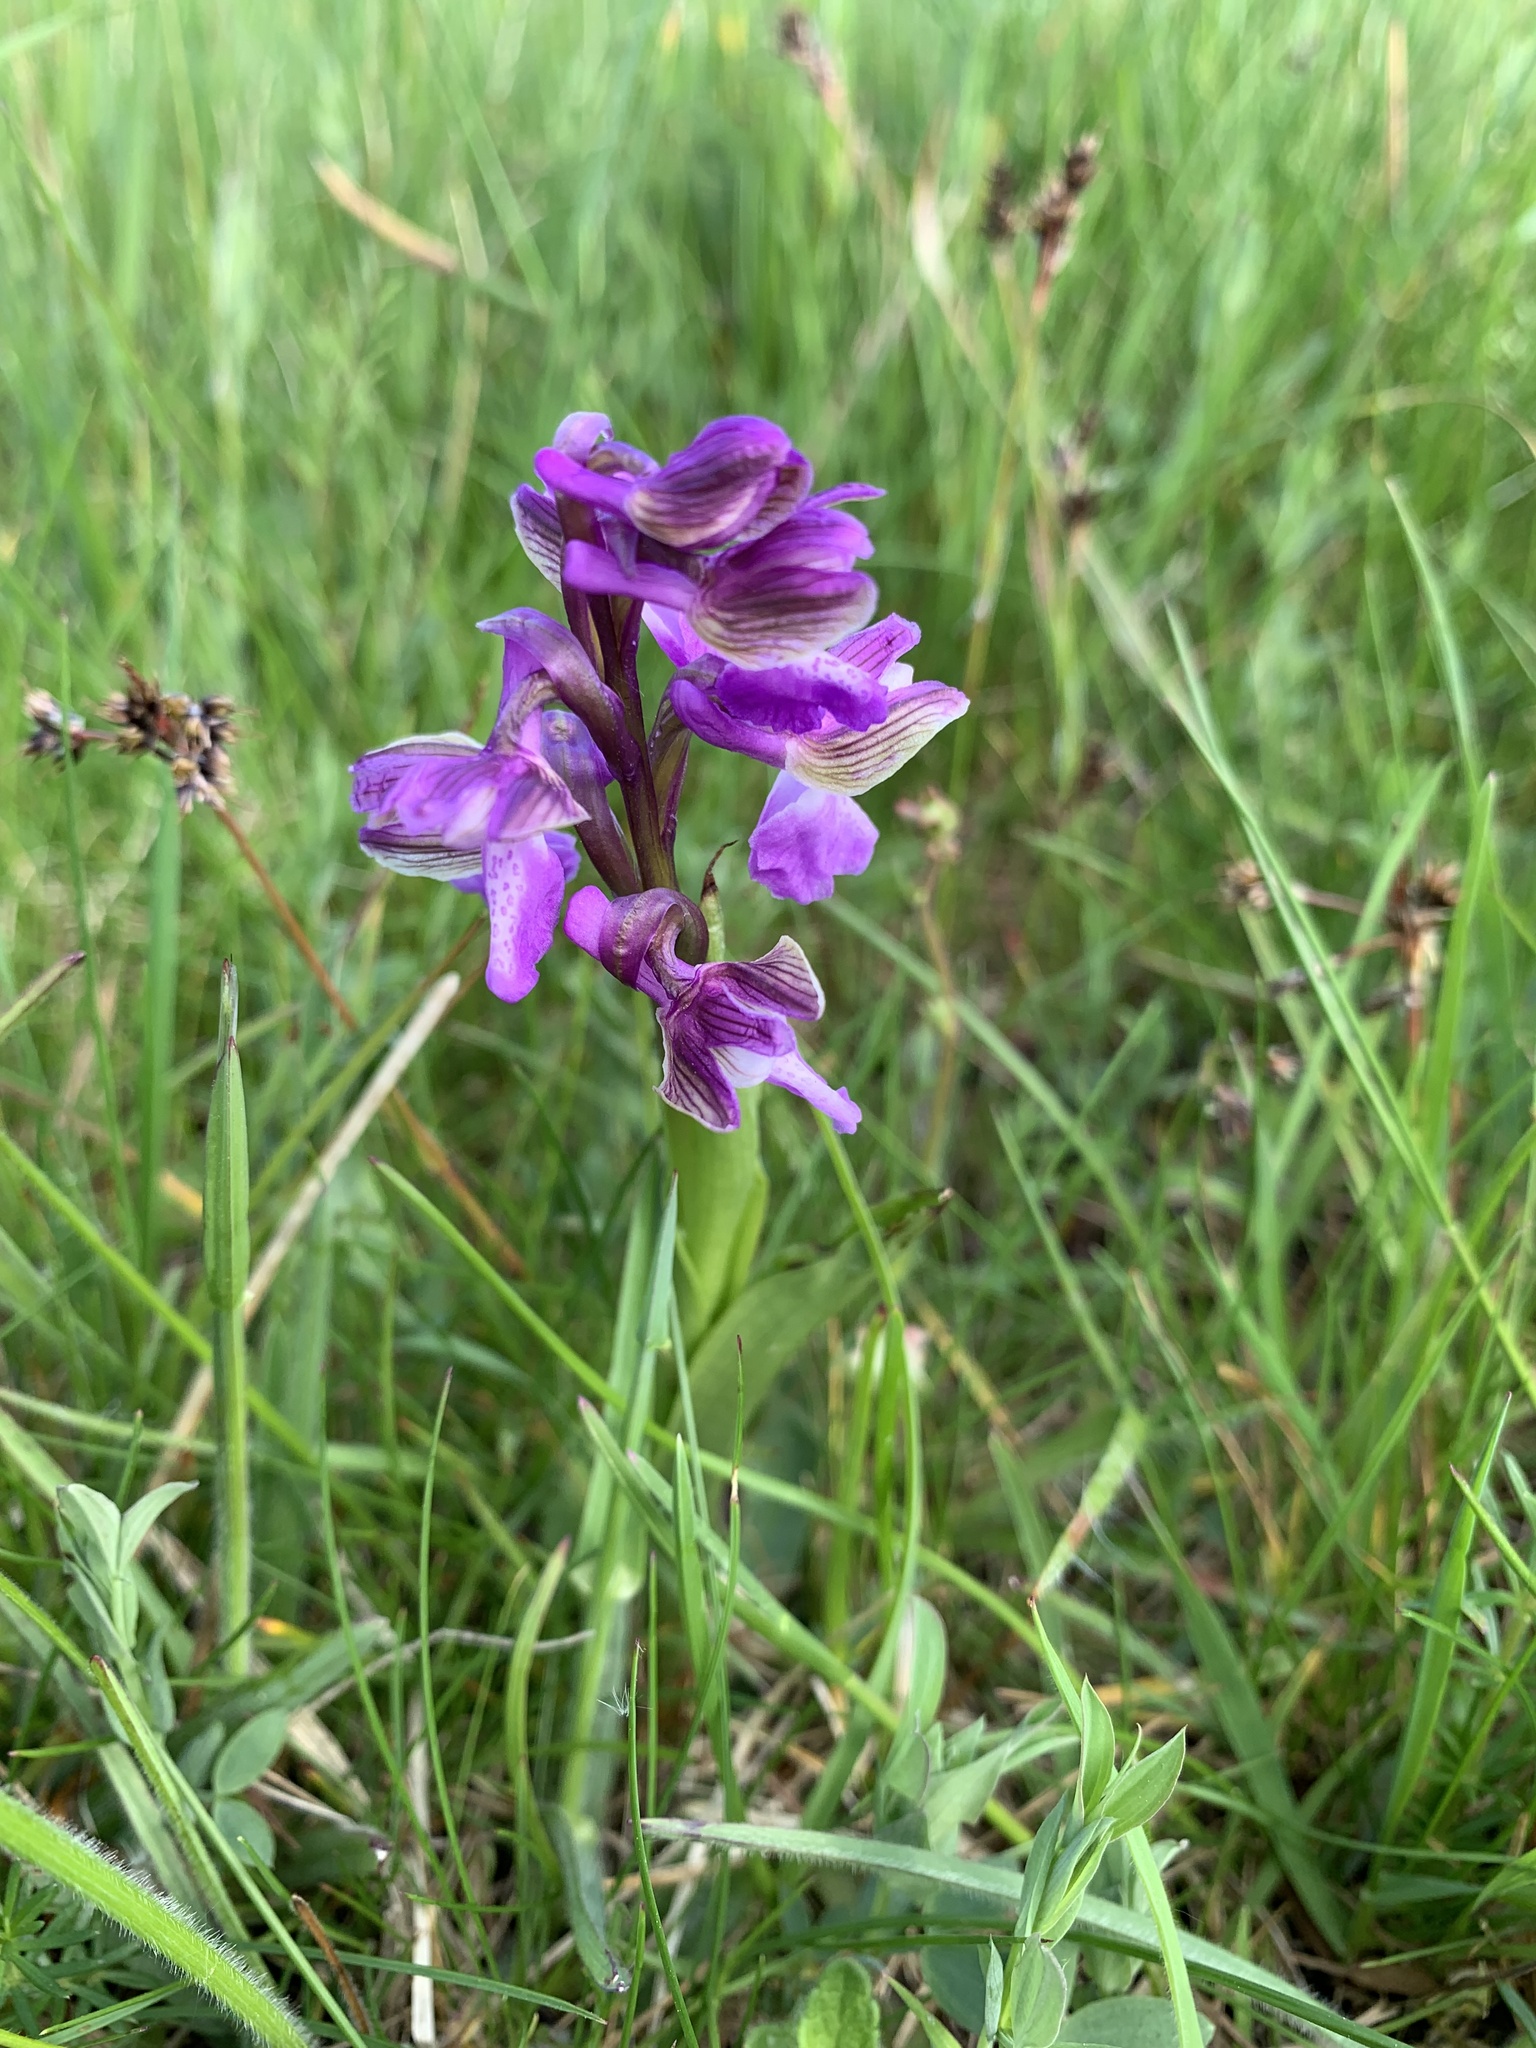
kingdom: Plantae
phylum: Tracheophyta
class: Liliopsida
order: Asparagales
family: Orchidaceae
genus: Anacamptis
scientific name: Anacamptis morio
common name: Green-winged orchid
